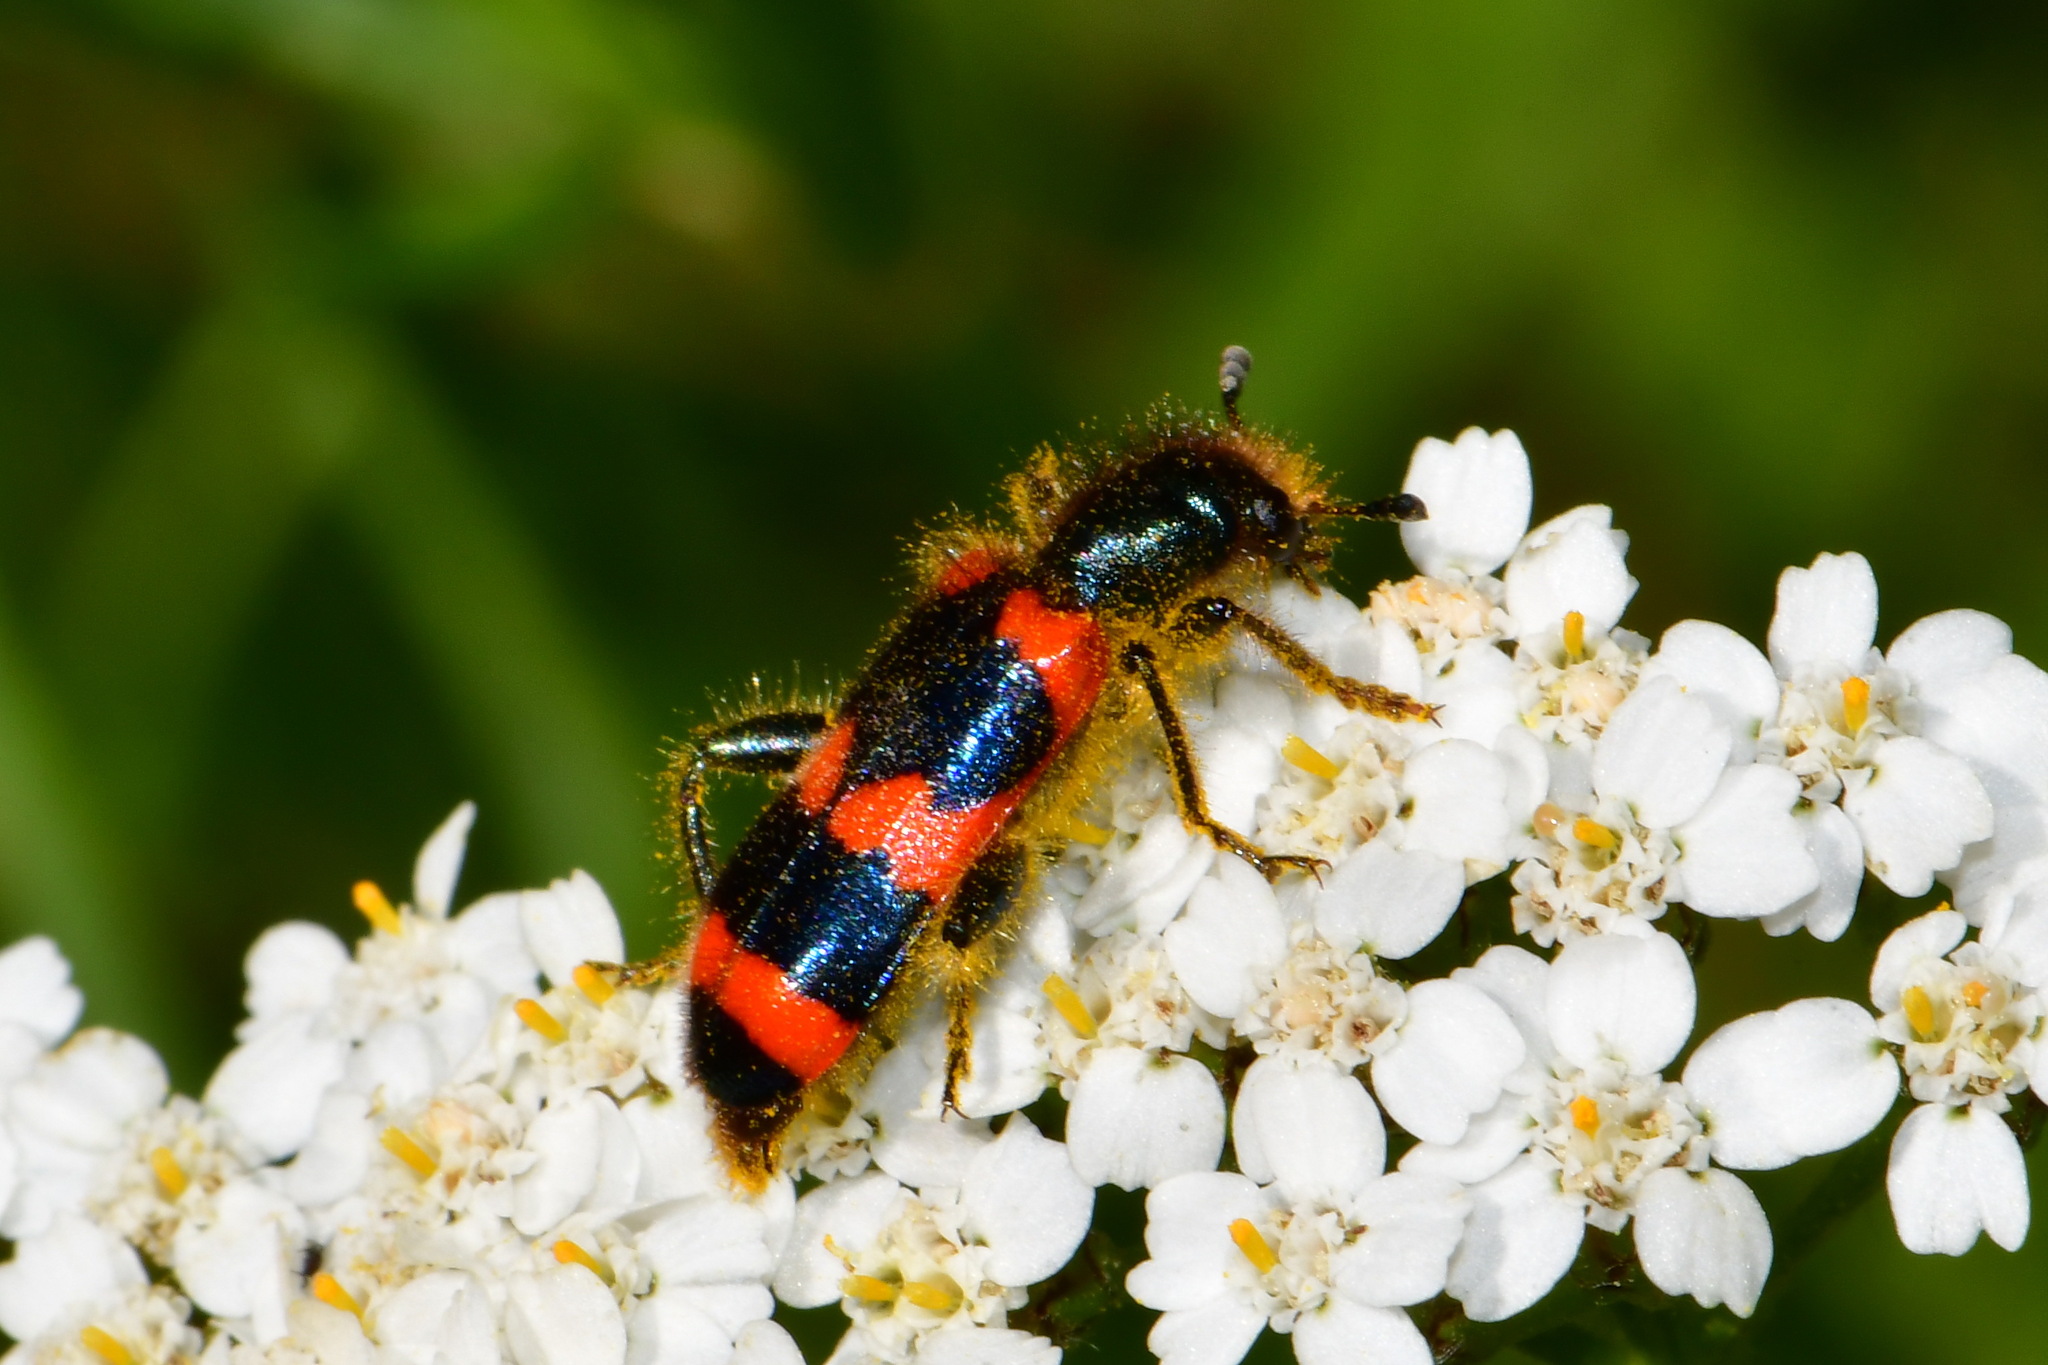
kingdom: Animalia
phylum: Arthropoda
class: Insecta
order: Coleoptera
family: Cleridae
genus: Trichodes
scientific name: Trichodes apiarius
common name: Bee-eating beetle
